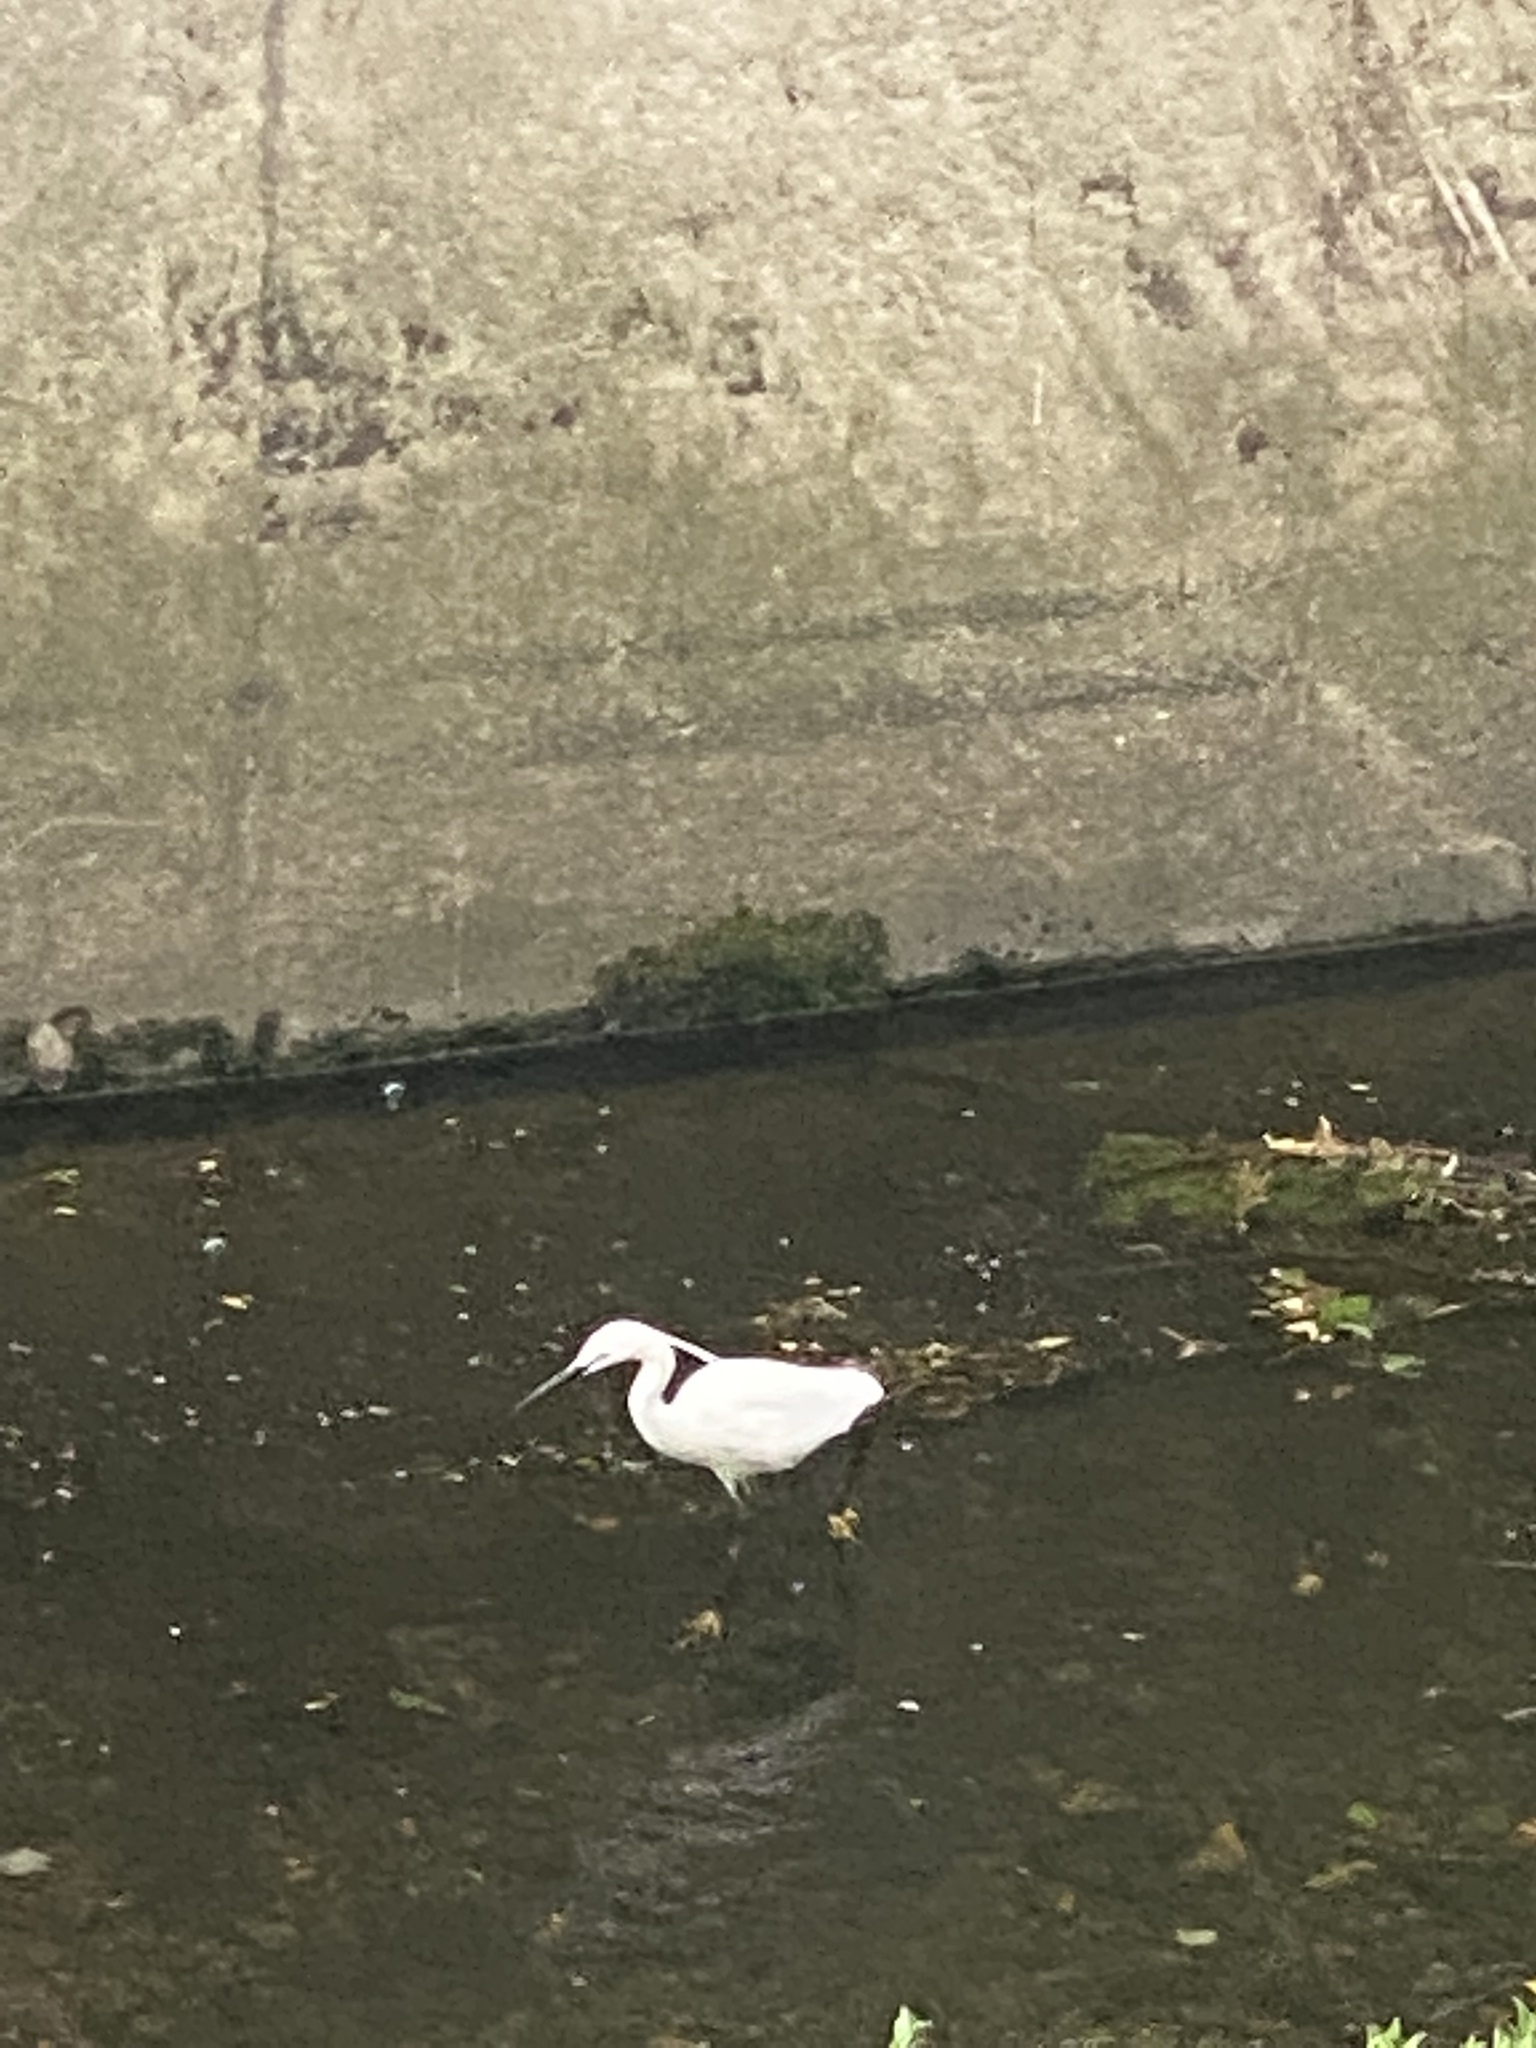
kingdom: Animalia
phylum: Chordata
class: Aves
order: Pelecaniformes
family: Ardeidae
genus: Egretta
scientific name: Egretta garzetta
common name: Little egret
